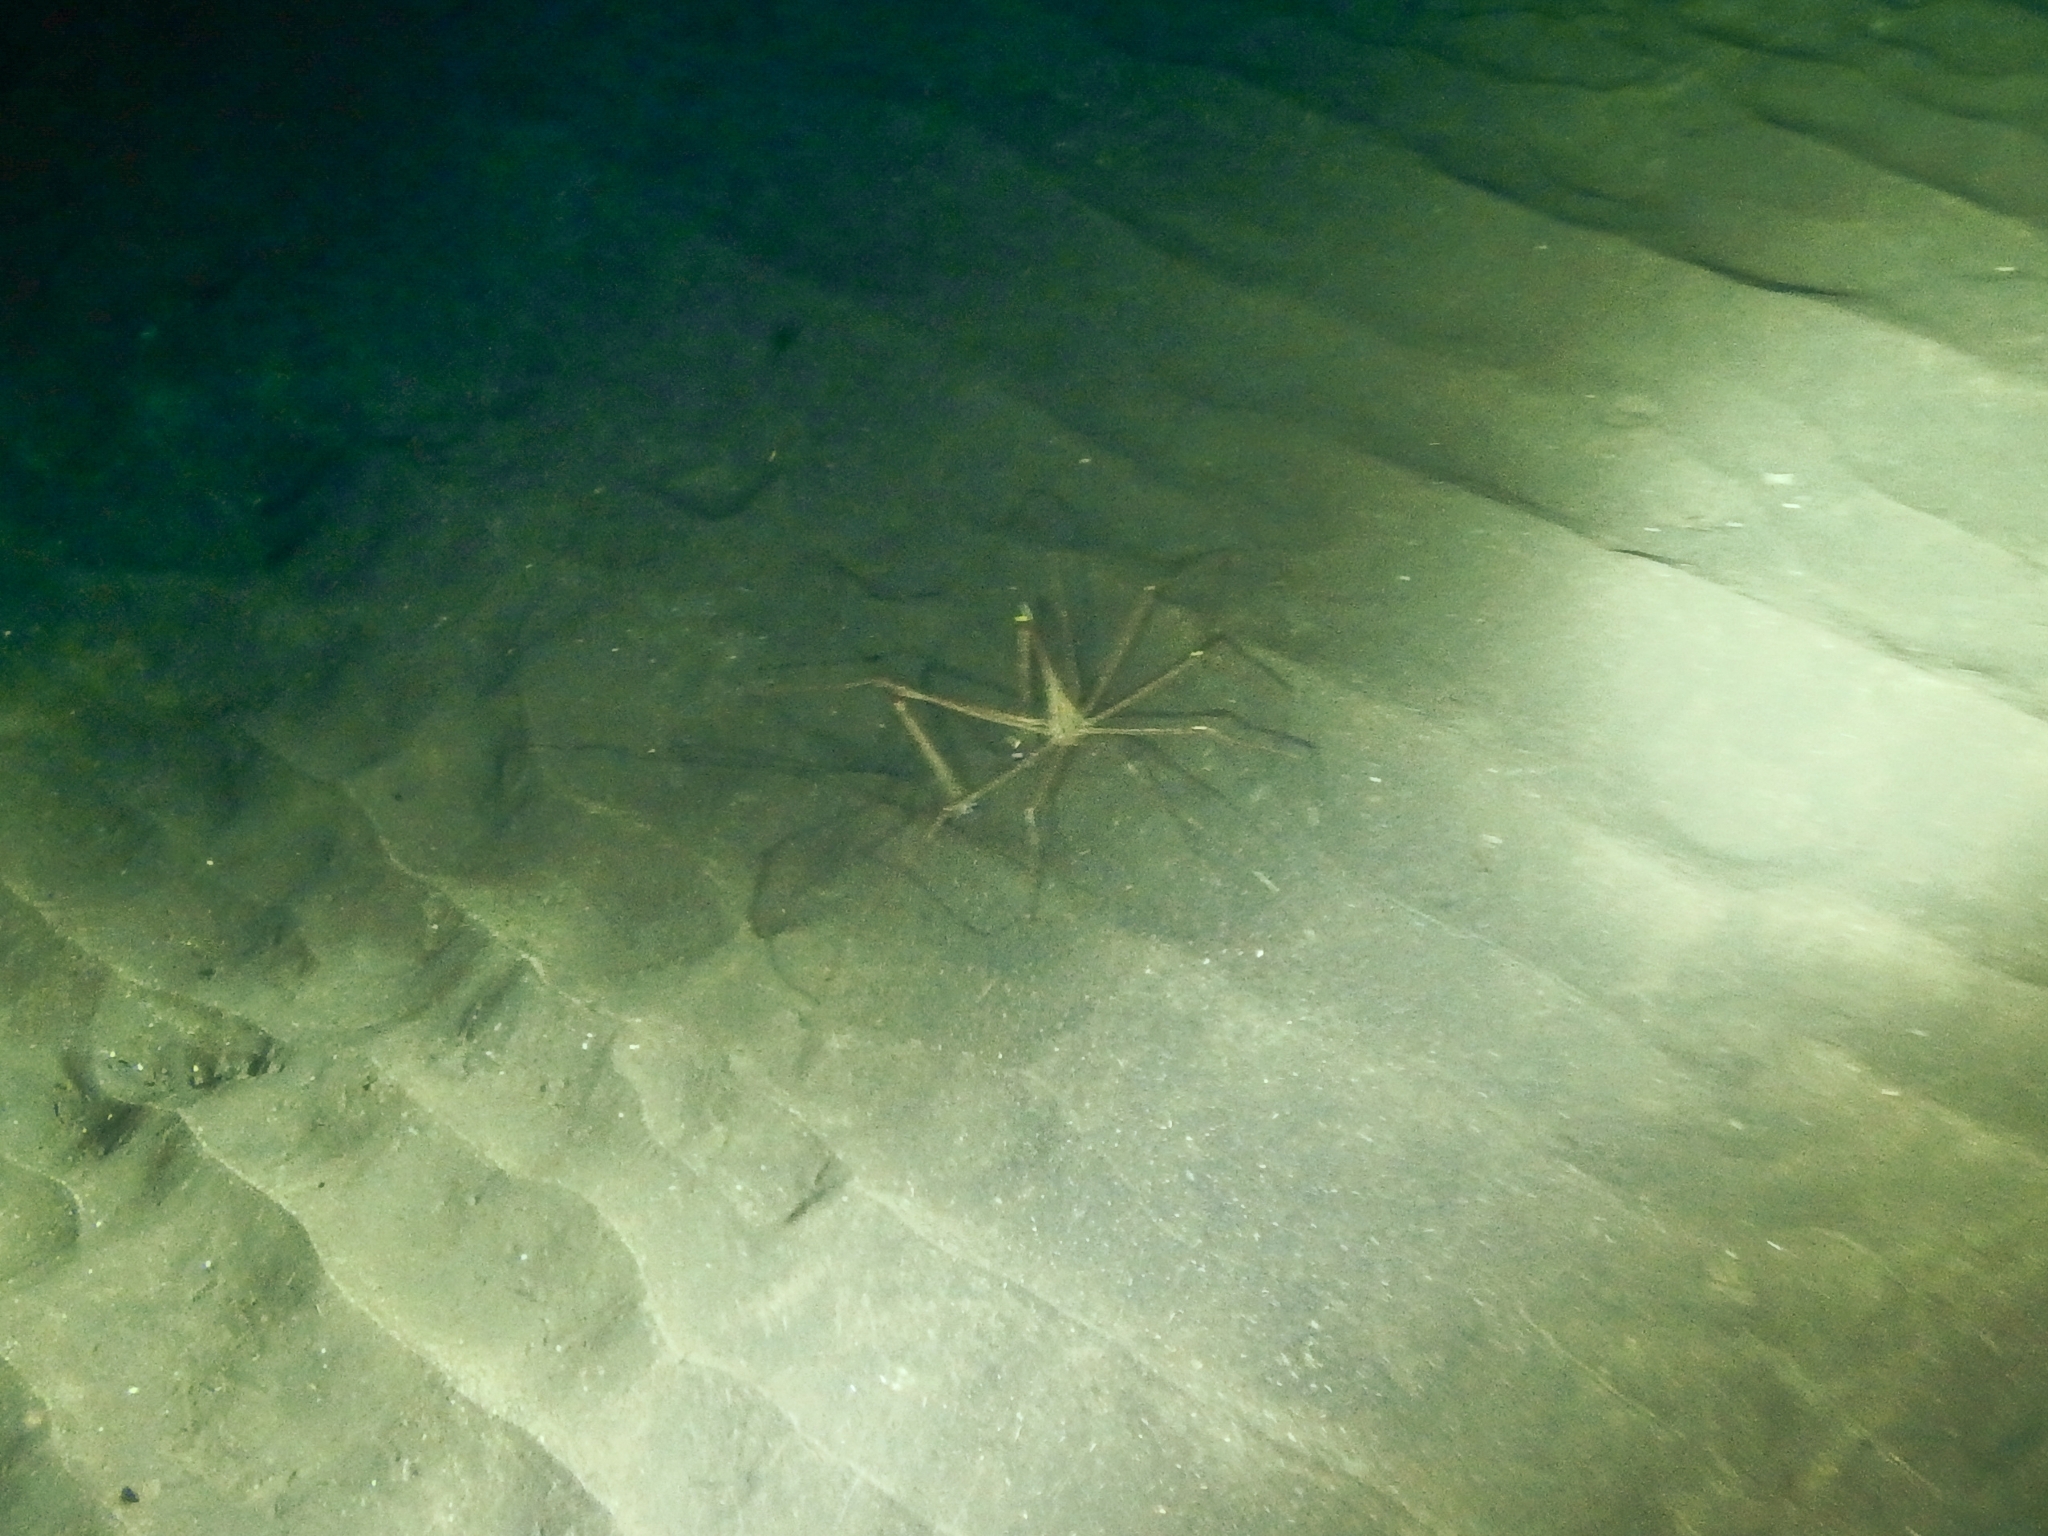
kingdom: Animalia
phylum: Arthropoda
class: Malacostraca
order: Decapoda
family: Inachoididae
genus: Stenorhynchus
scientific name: Stenorhynchus lanceolatus
